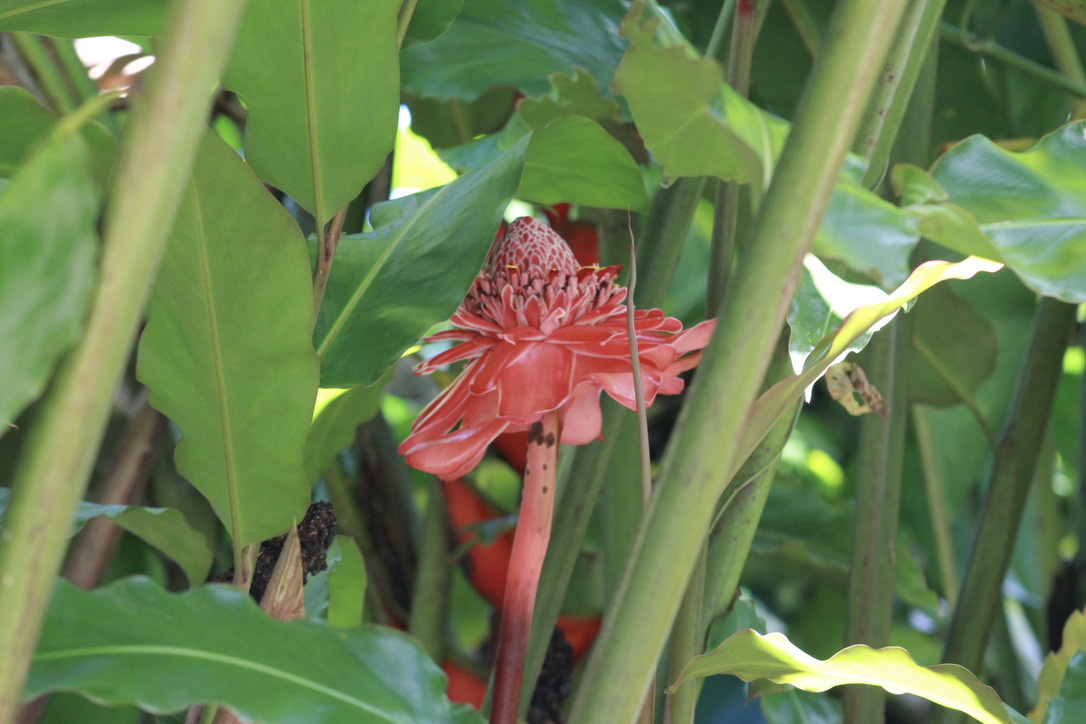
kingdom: Plantae
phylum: Tracheophyta
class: Liliopsida
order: Zingiberales
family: Zingiberaceae
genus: Etlingera
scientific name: Etlingera elatior
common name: Philippine waxflower
